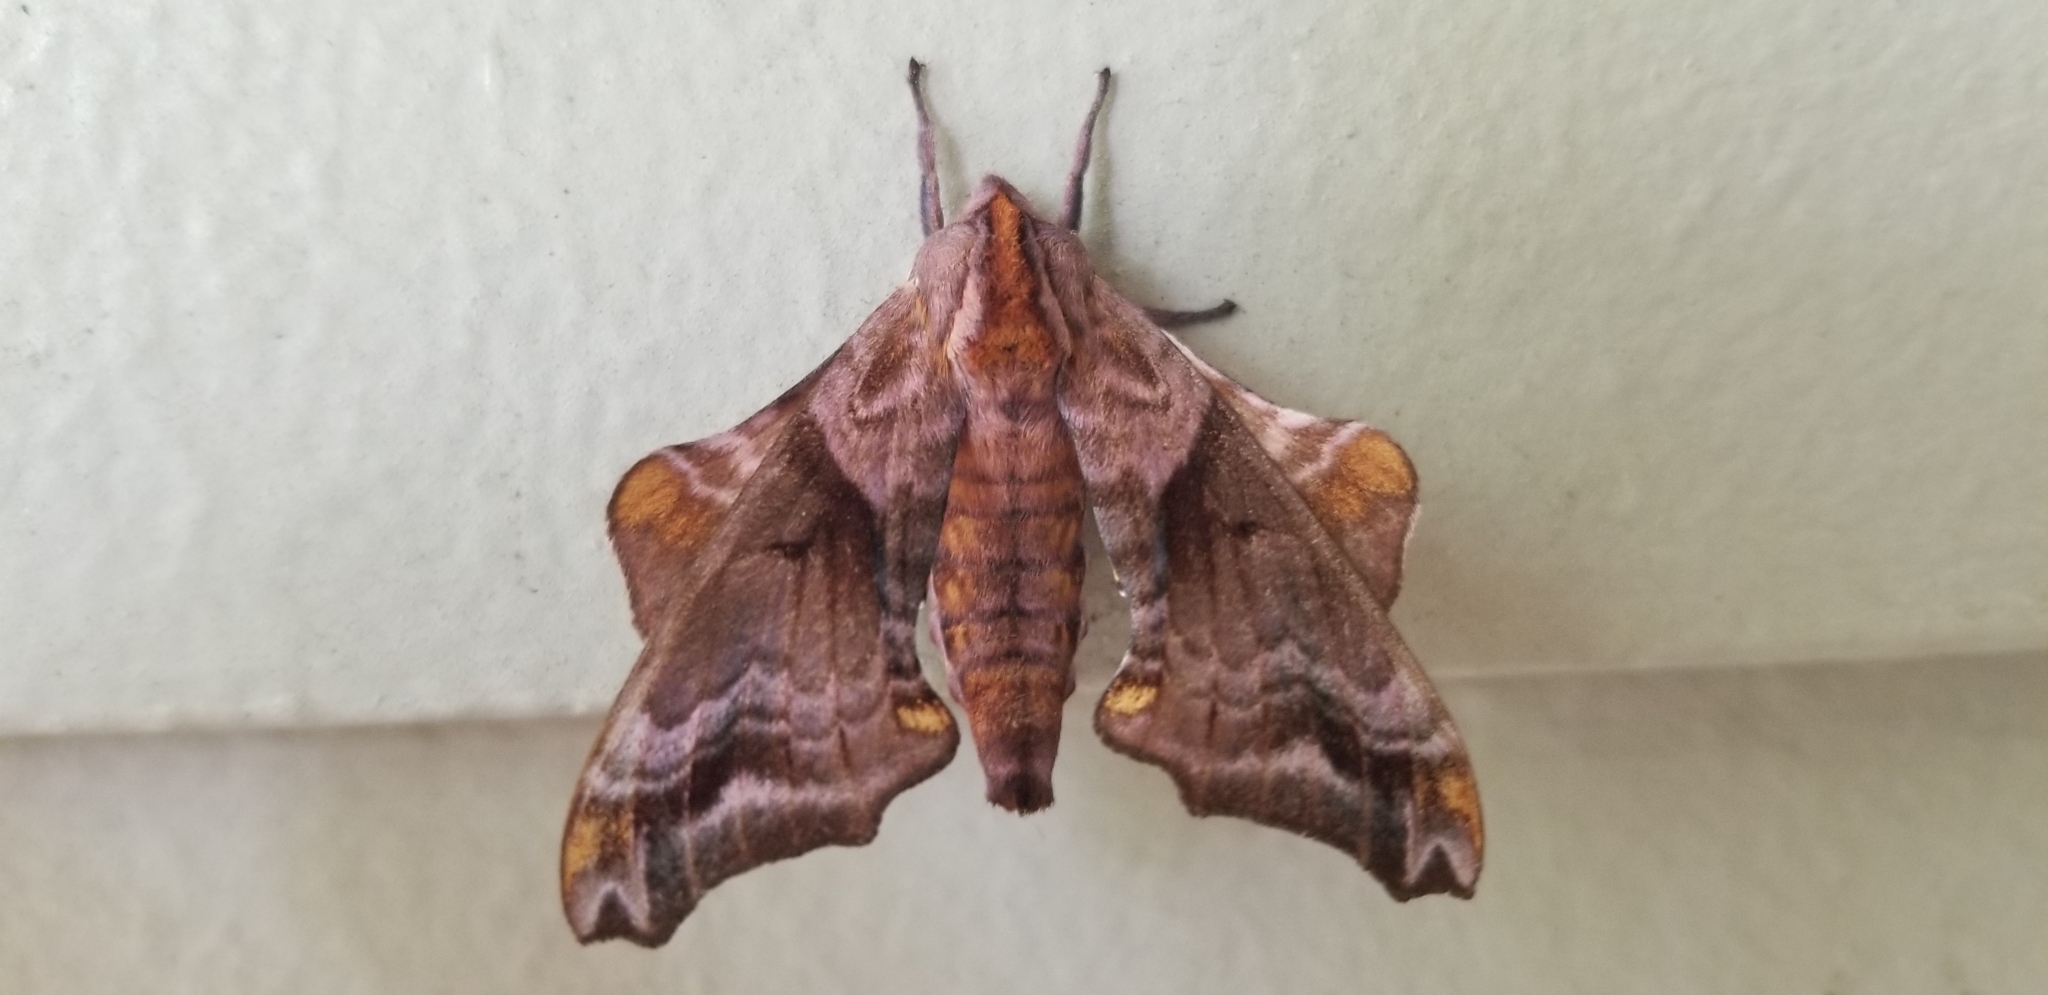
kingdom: Animalia
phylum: Arthropoda
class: Insecta
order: Lepidoptera
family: Sphingidae
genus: Paonias
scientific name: Paonias myops
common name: Small-eyed sphinx
